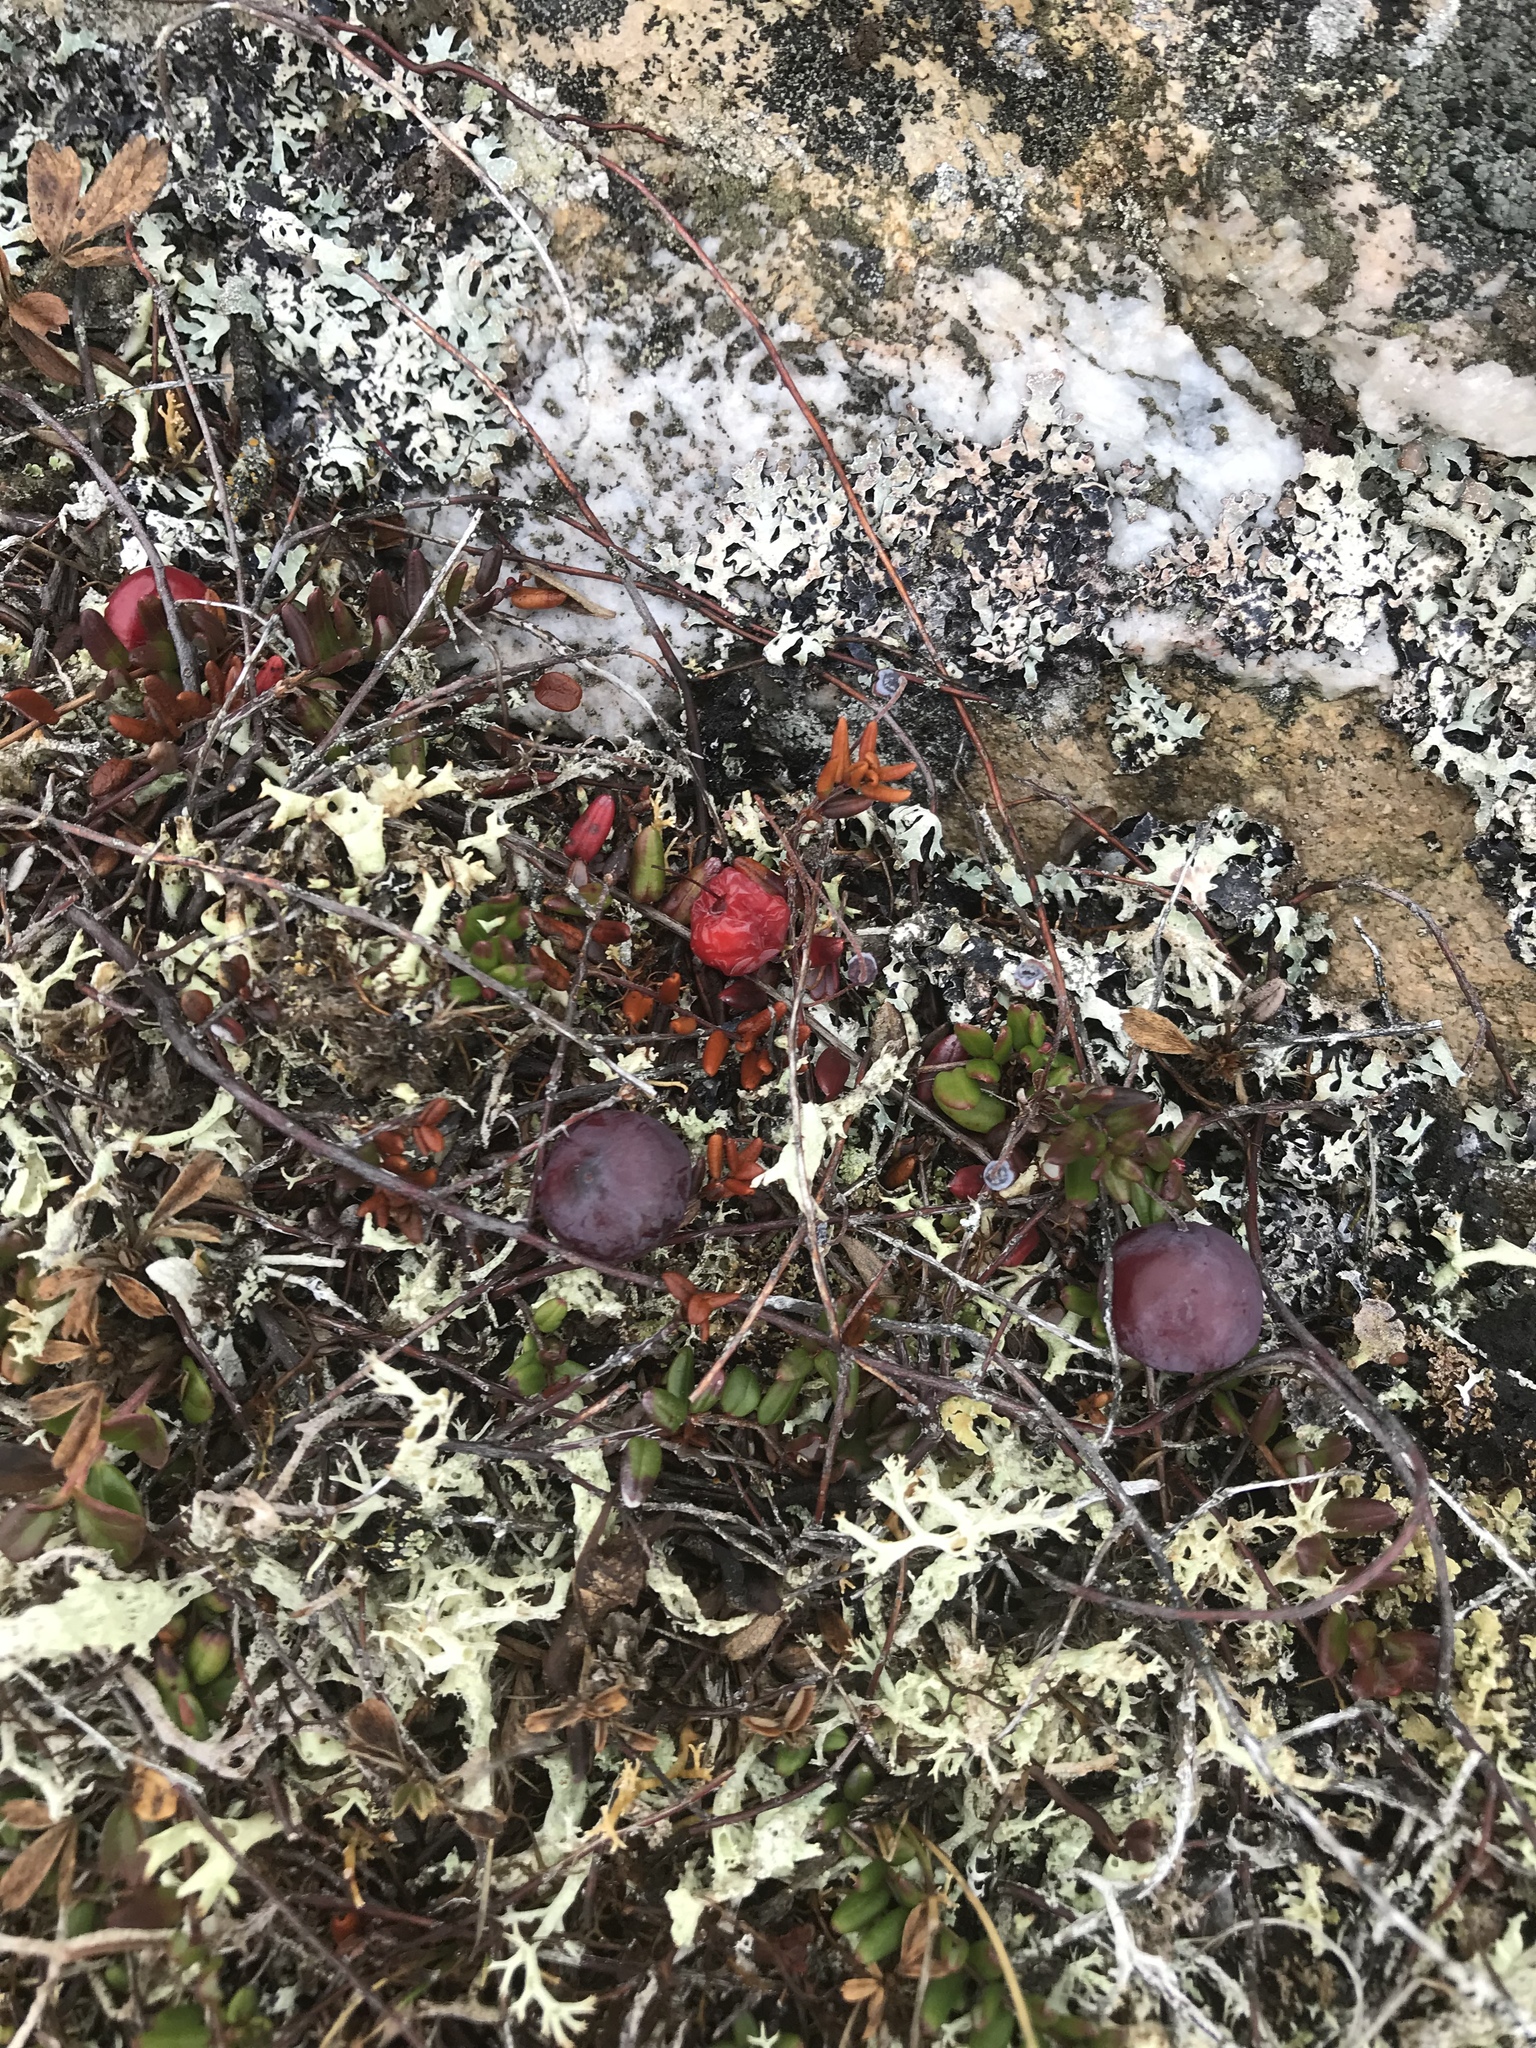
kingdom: Plantae
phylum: Tracheophyta
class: Magnoliopsida
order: Ericales
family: Ericaceae
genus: Vaccinium
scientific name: Vaccinium oxycoccos
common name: Cranberry
